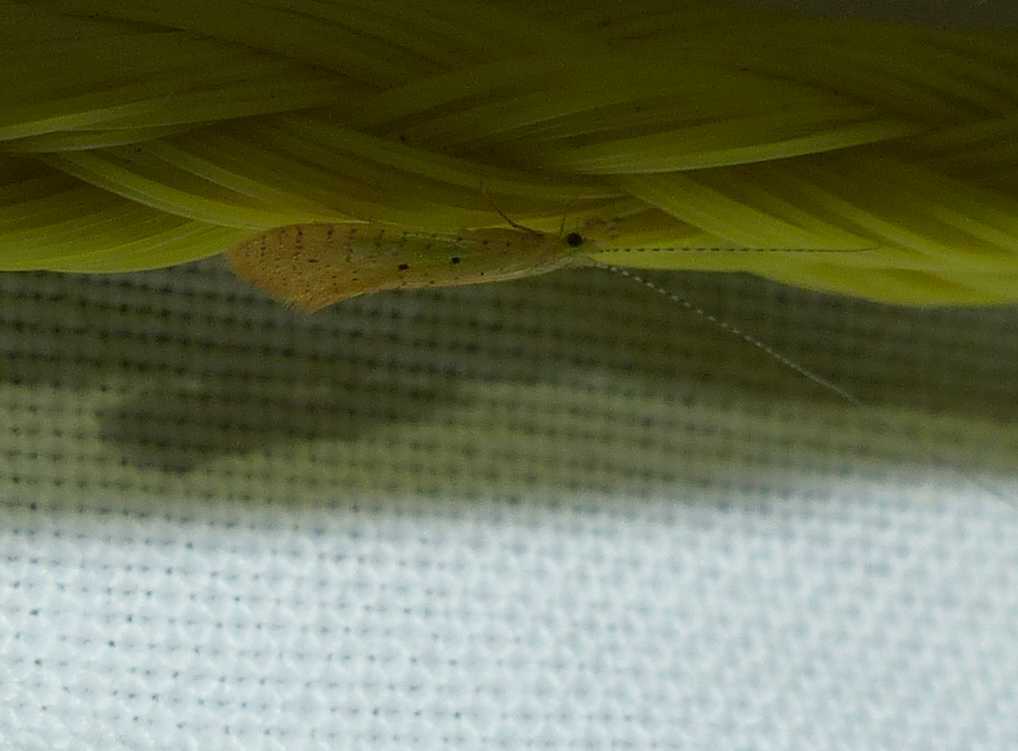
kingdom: Animalia
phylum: Arthropoda
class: Insecta
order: Trichoptera
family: Leptoceridae
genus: Nectopsyche
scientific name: Nectopsyche pavida
